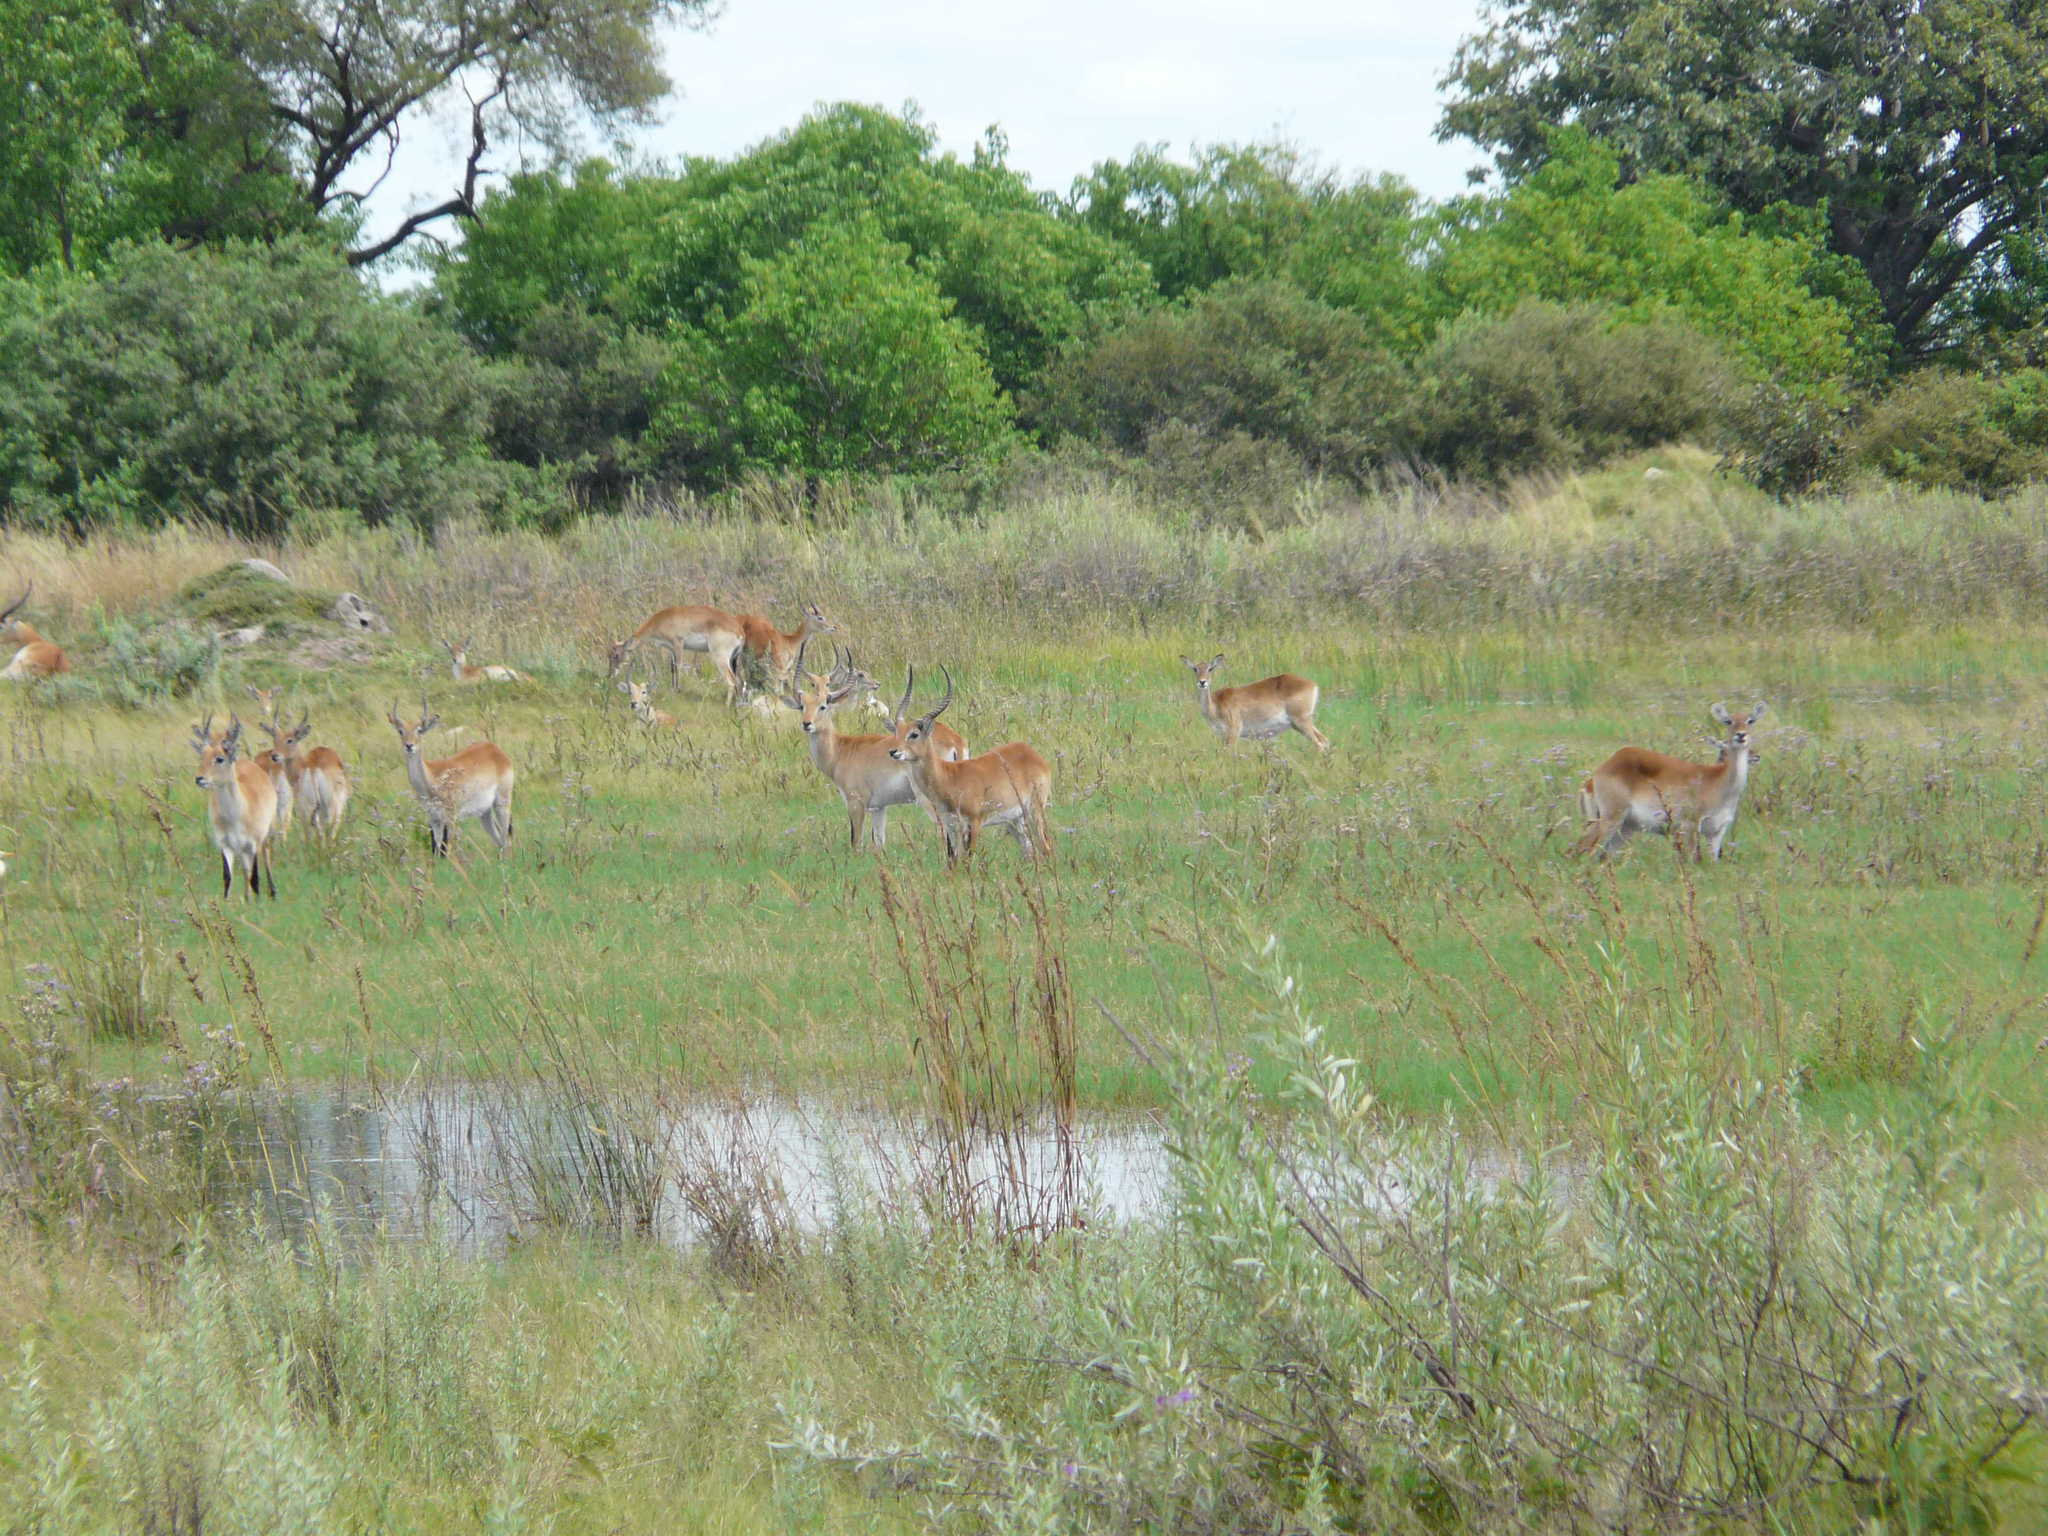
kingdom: Animalia
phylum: Chordata
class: Mammalia
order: Artiodactyla
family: Bovidae
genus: Kobus
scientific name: Kobus leche
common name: Lechwe
